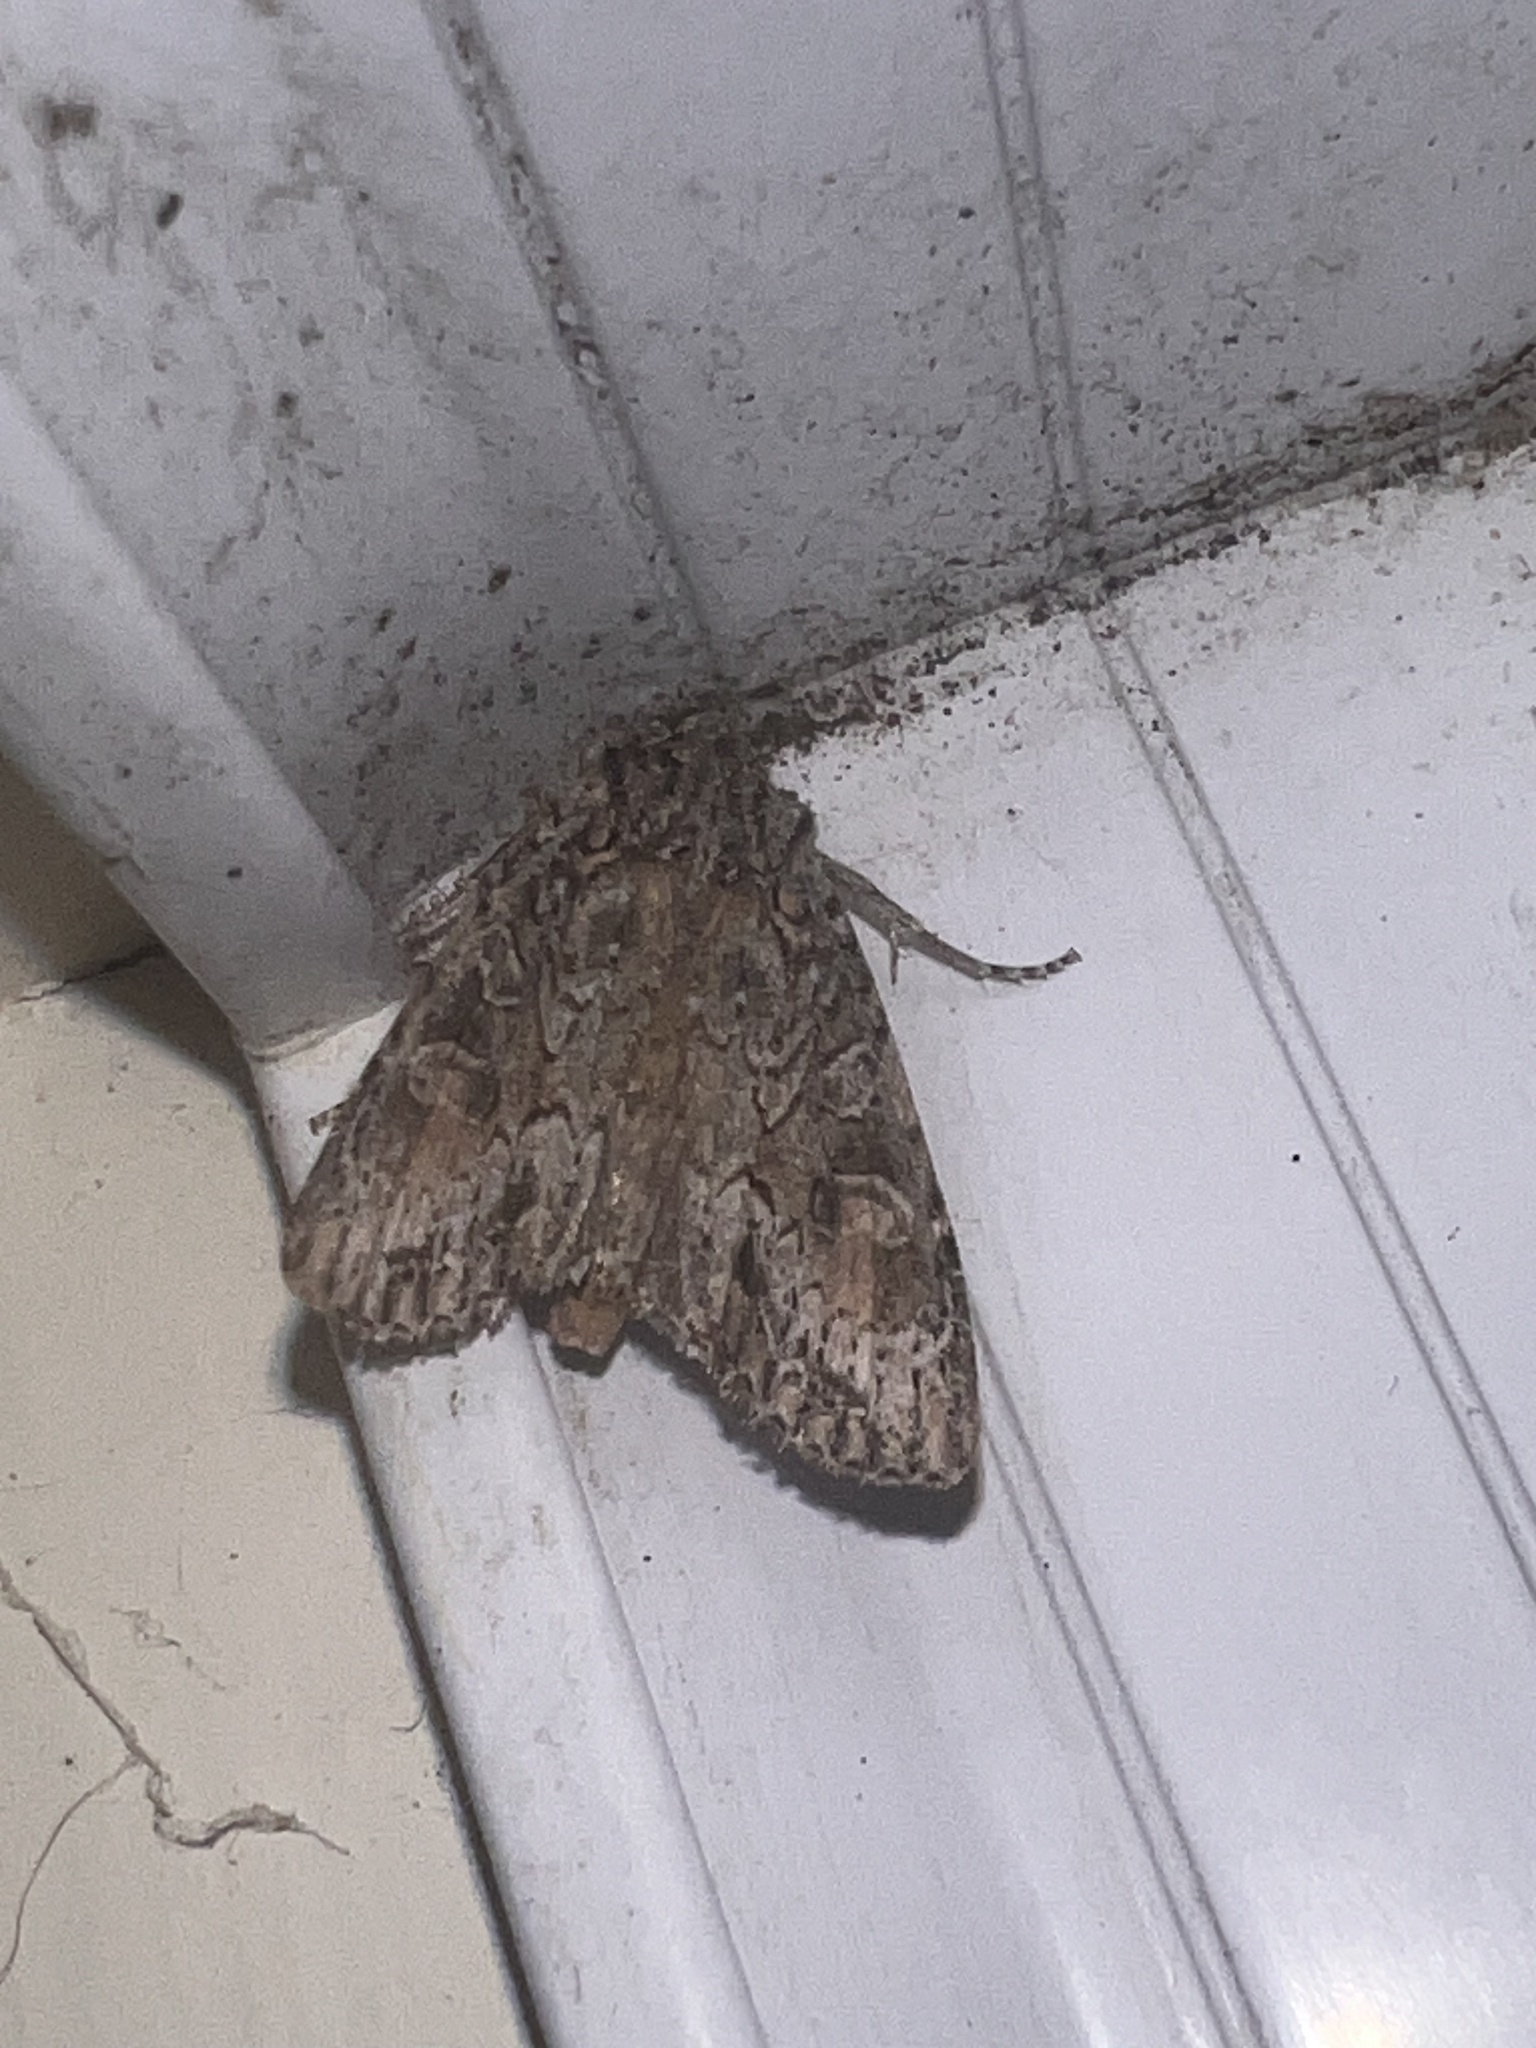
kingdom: Animalia
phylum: Arthropoda
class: Insecta
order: Lepidoptera
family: Noctuidae
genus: Ichneutica
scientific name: Ichneutica mutans
